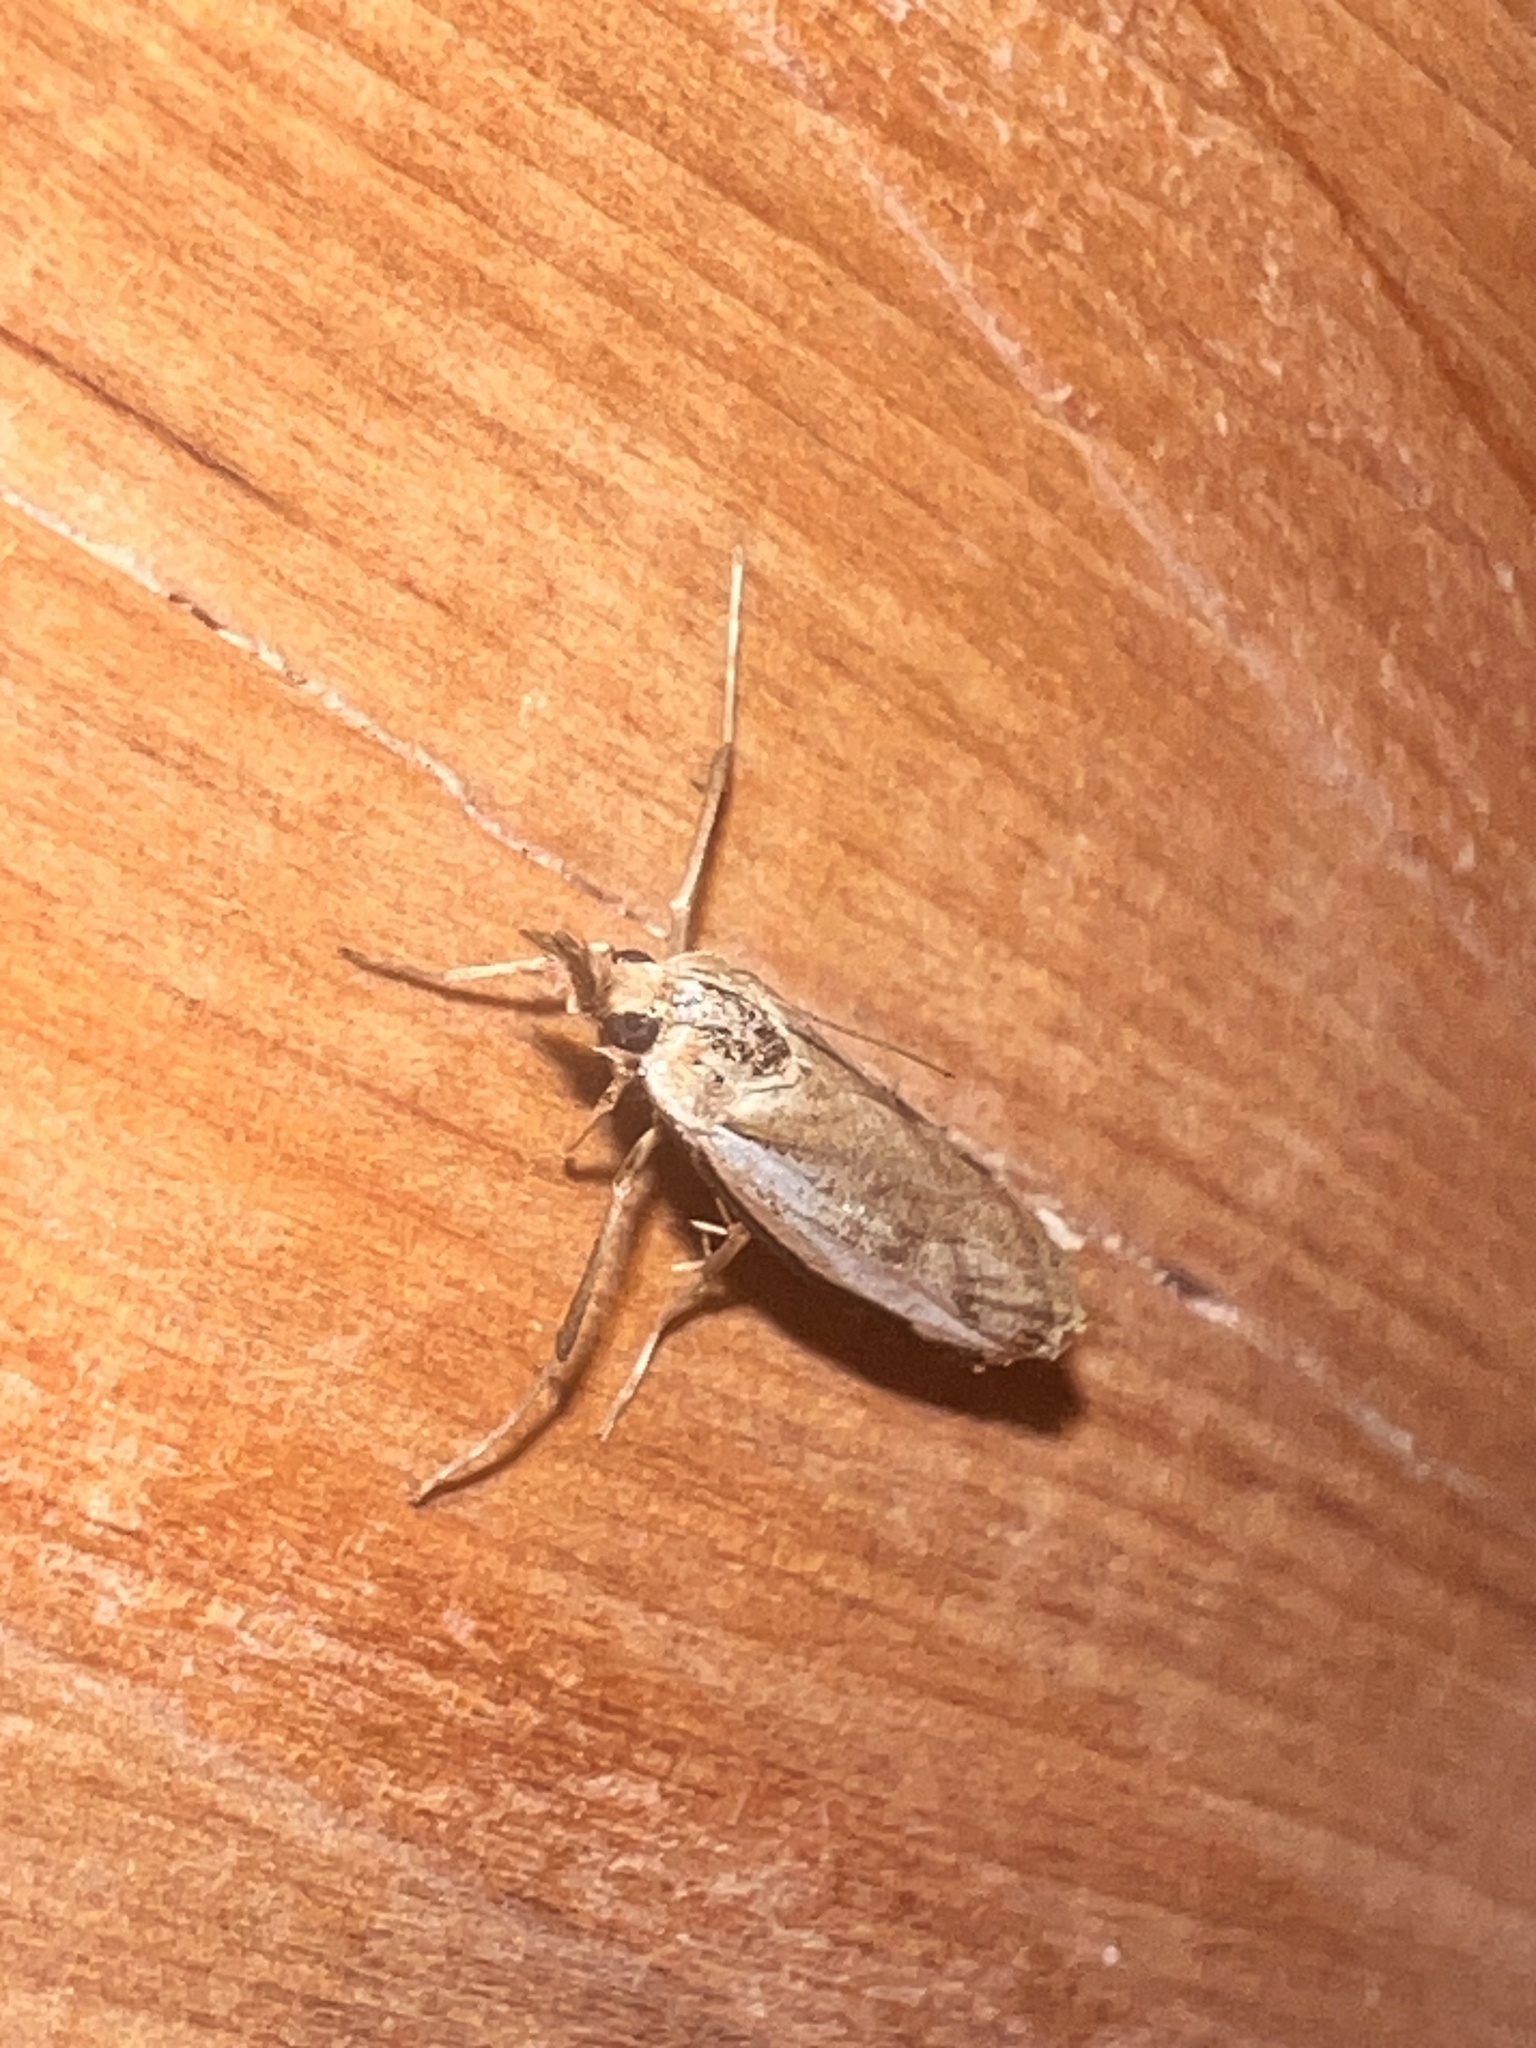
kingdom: Animalia
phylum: Arthropoda
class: Insecta
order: Lepidoptera
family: Crambidae
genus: Orocrambus
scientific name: Orocrambus flexuosellus
